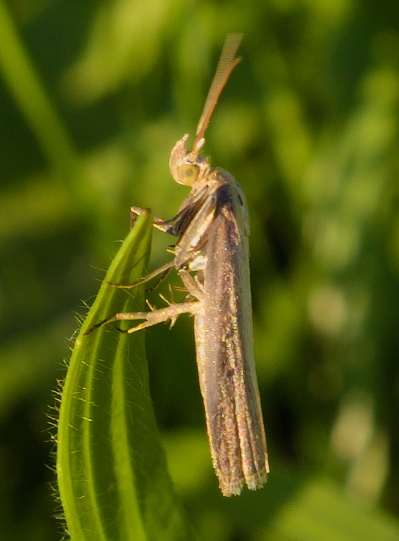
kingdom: Animalia
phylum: Arthropoda
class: Insecta
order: Lepidoptera
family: Pyralidae
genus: Oncocera
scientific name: Oncocera semirubella
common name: Rosy-striped knot-horn
